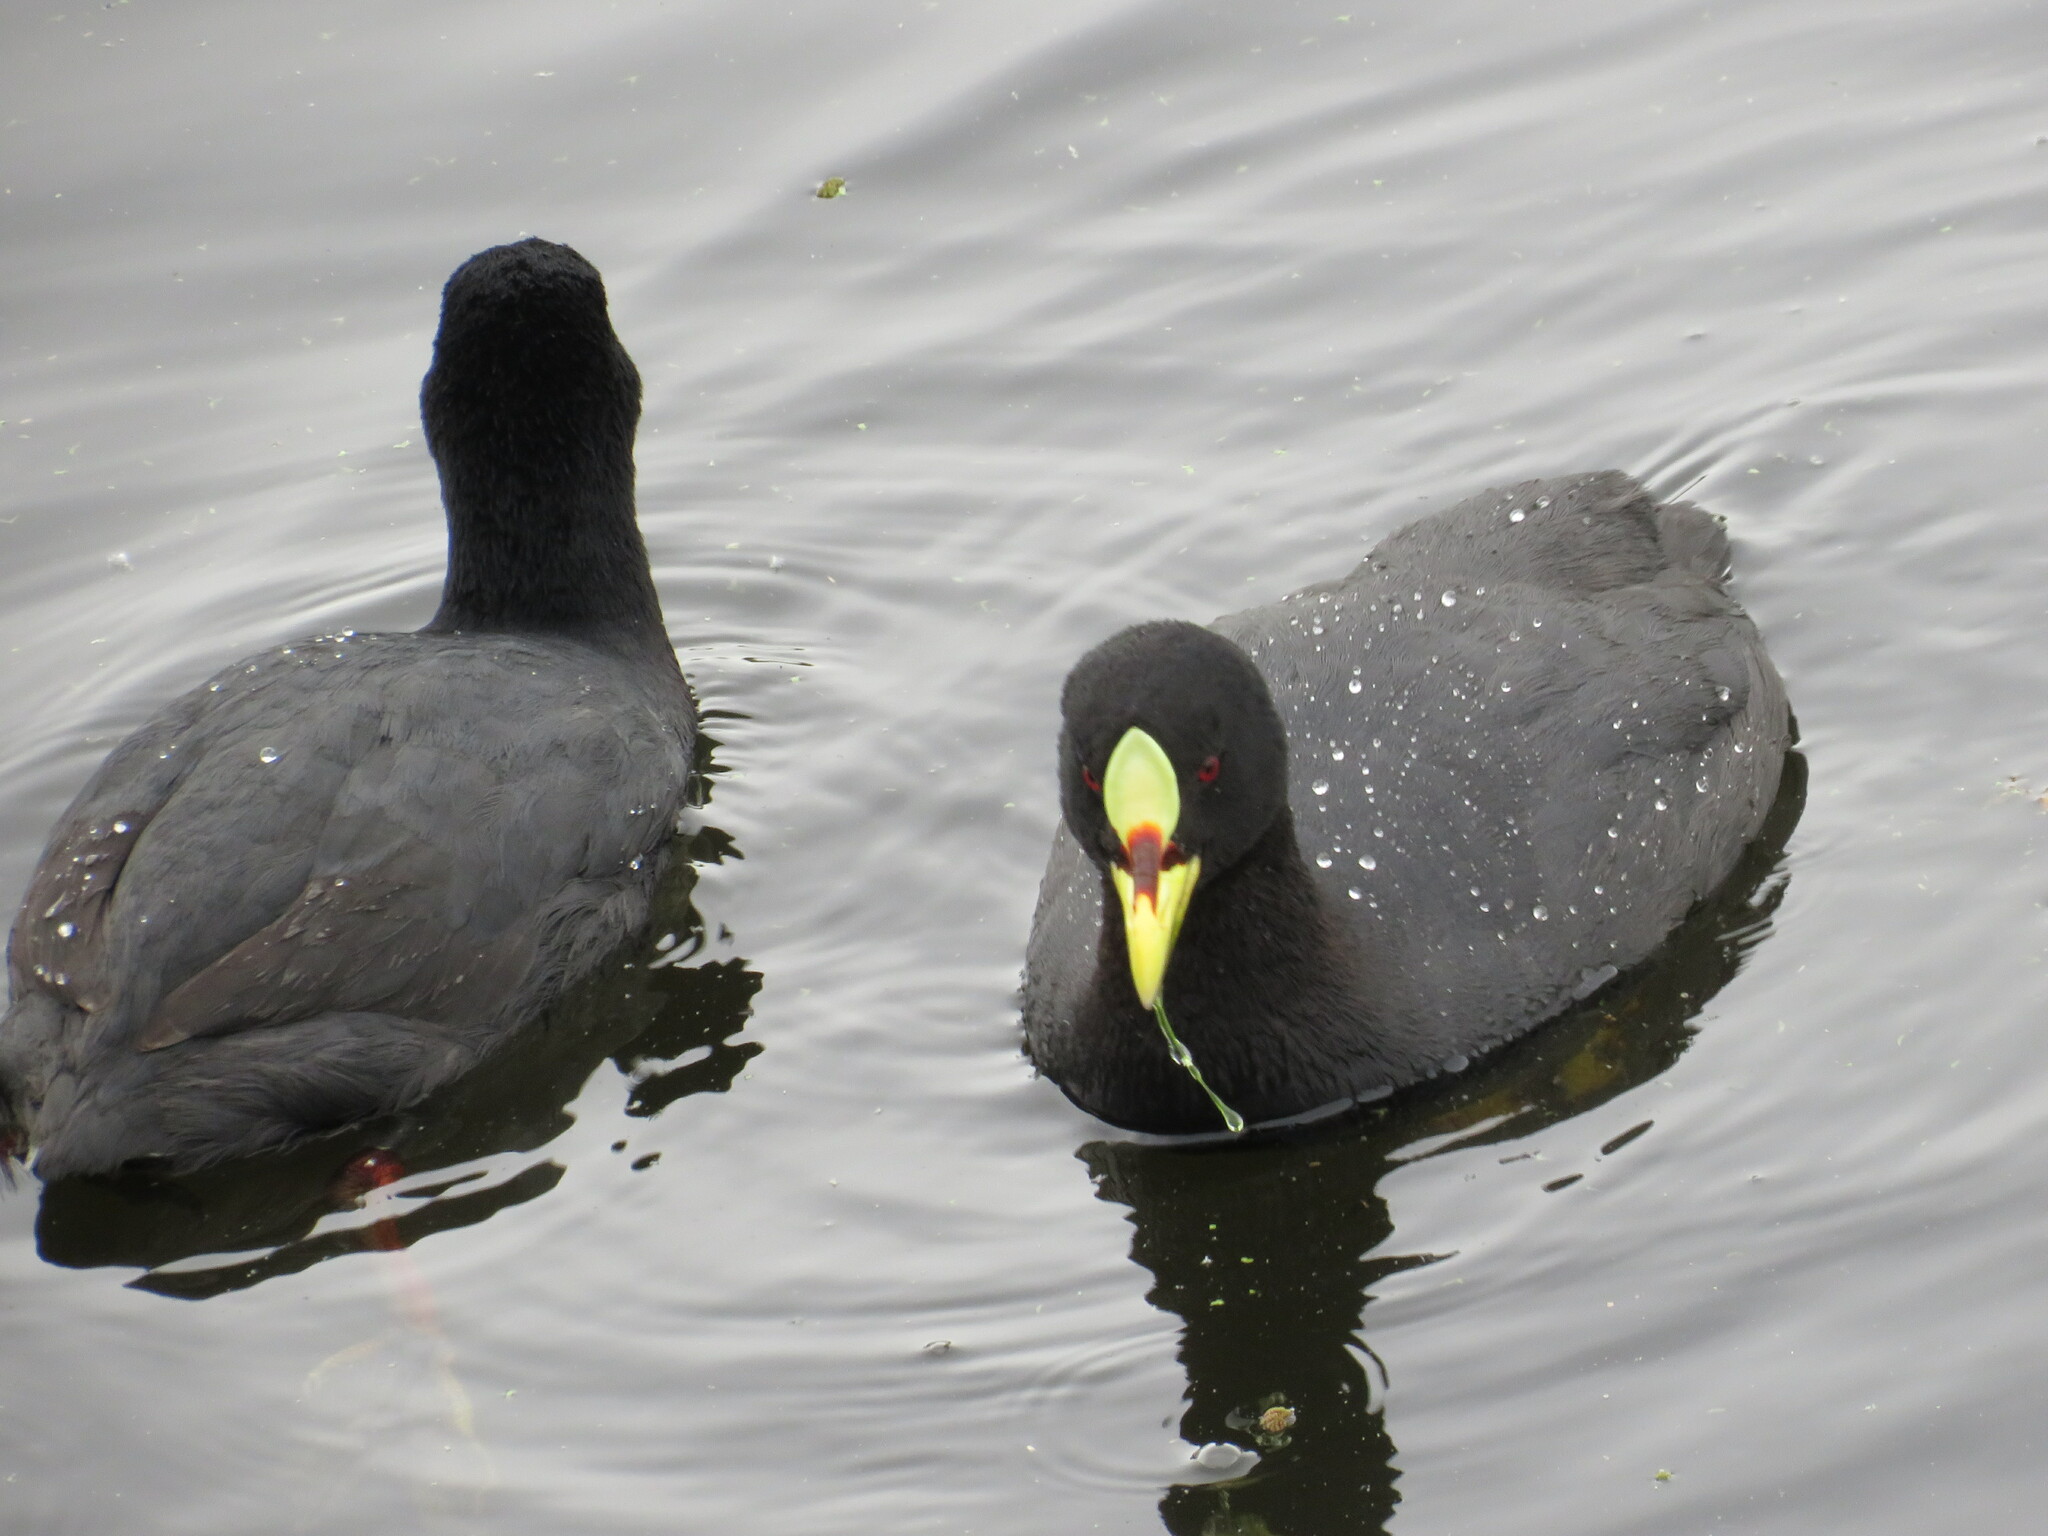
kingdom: Animalia
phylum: Chordata
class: Aves
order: Gruiformes
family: Rallidae
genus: Fulica
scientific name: Fulica armillata
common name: Red-gartered coot
